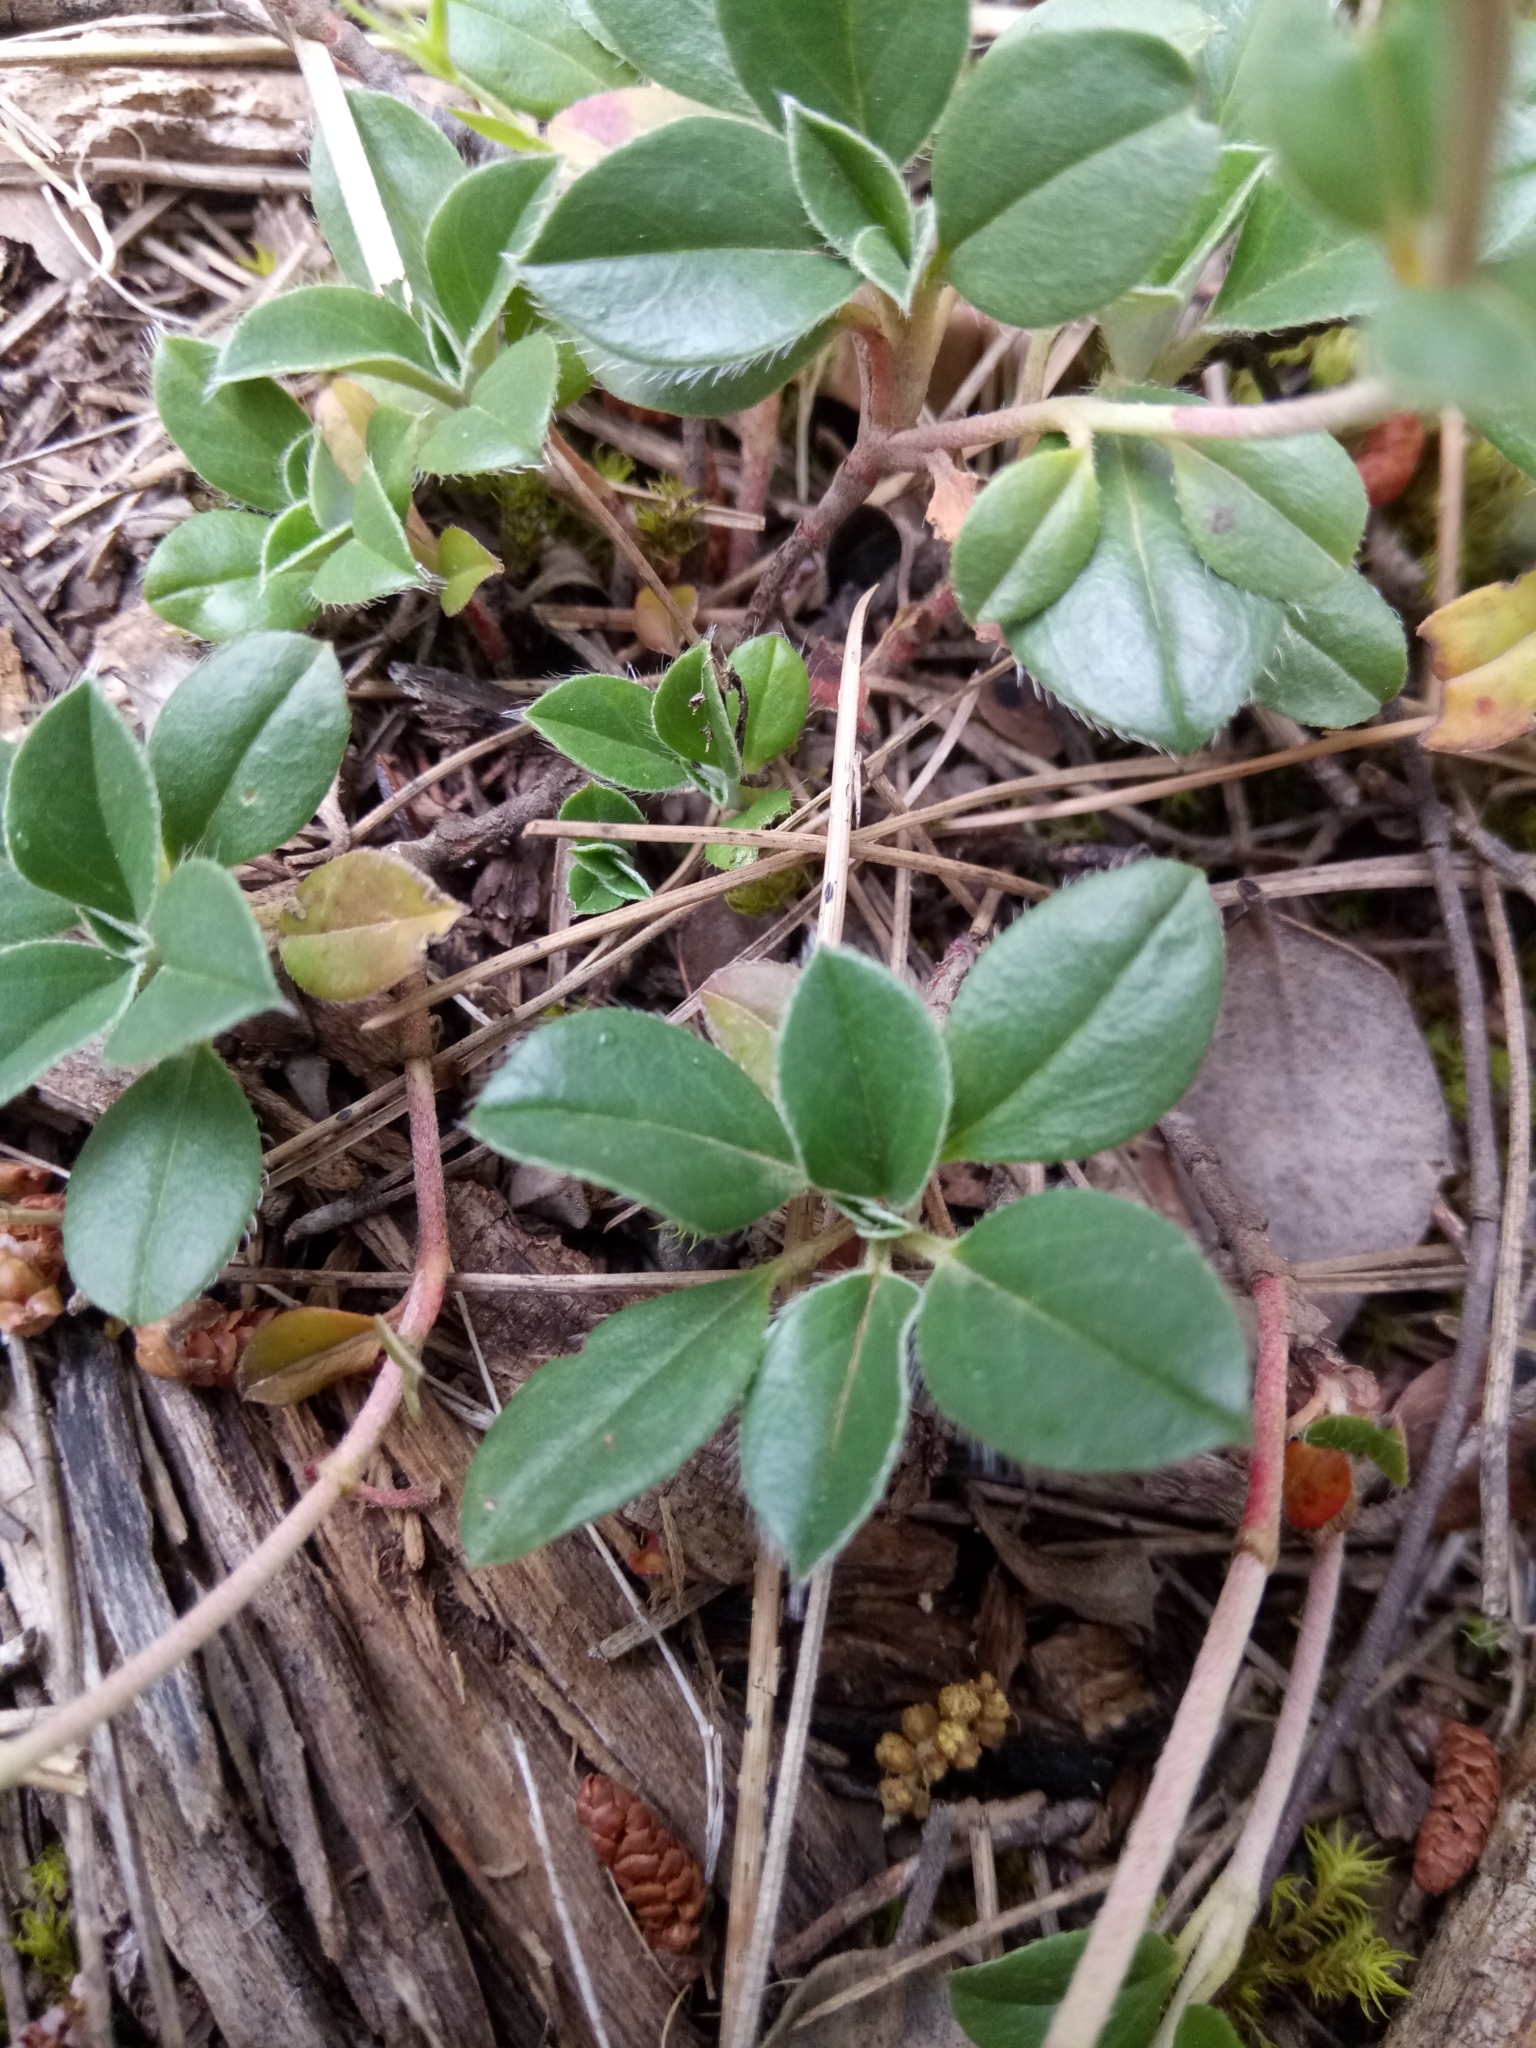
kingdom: Plantae
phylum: Tracheophyta
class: Magnoliopsida
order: Malvales
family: Cistaceae
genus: Helianthemum
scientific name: Helianthemum cinereum
